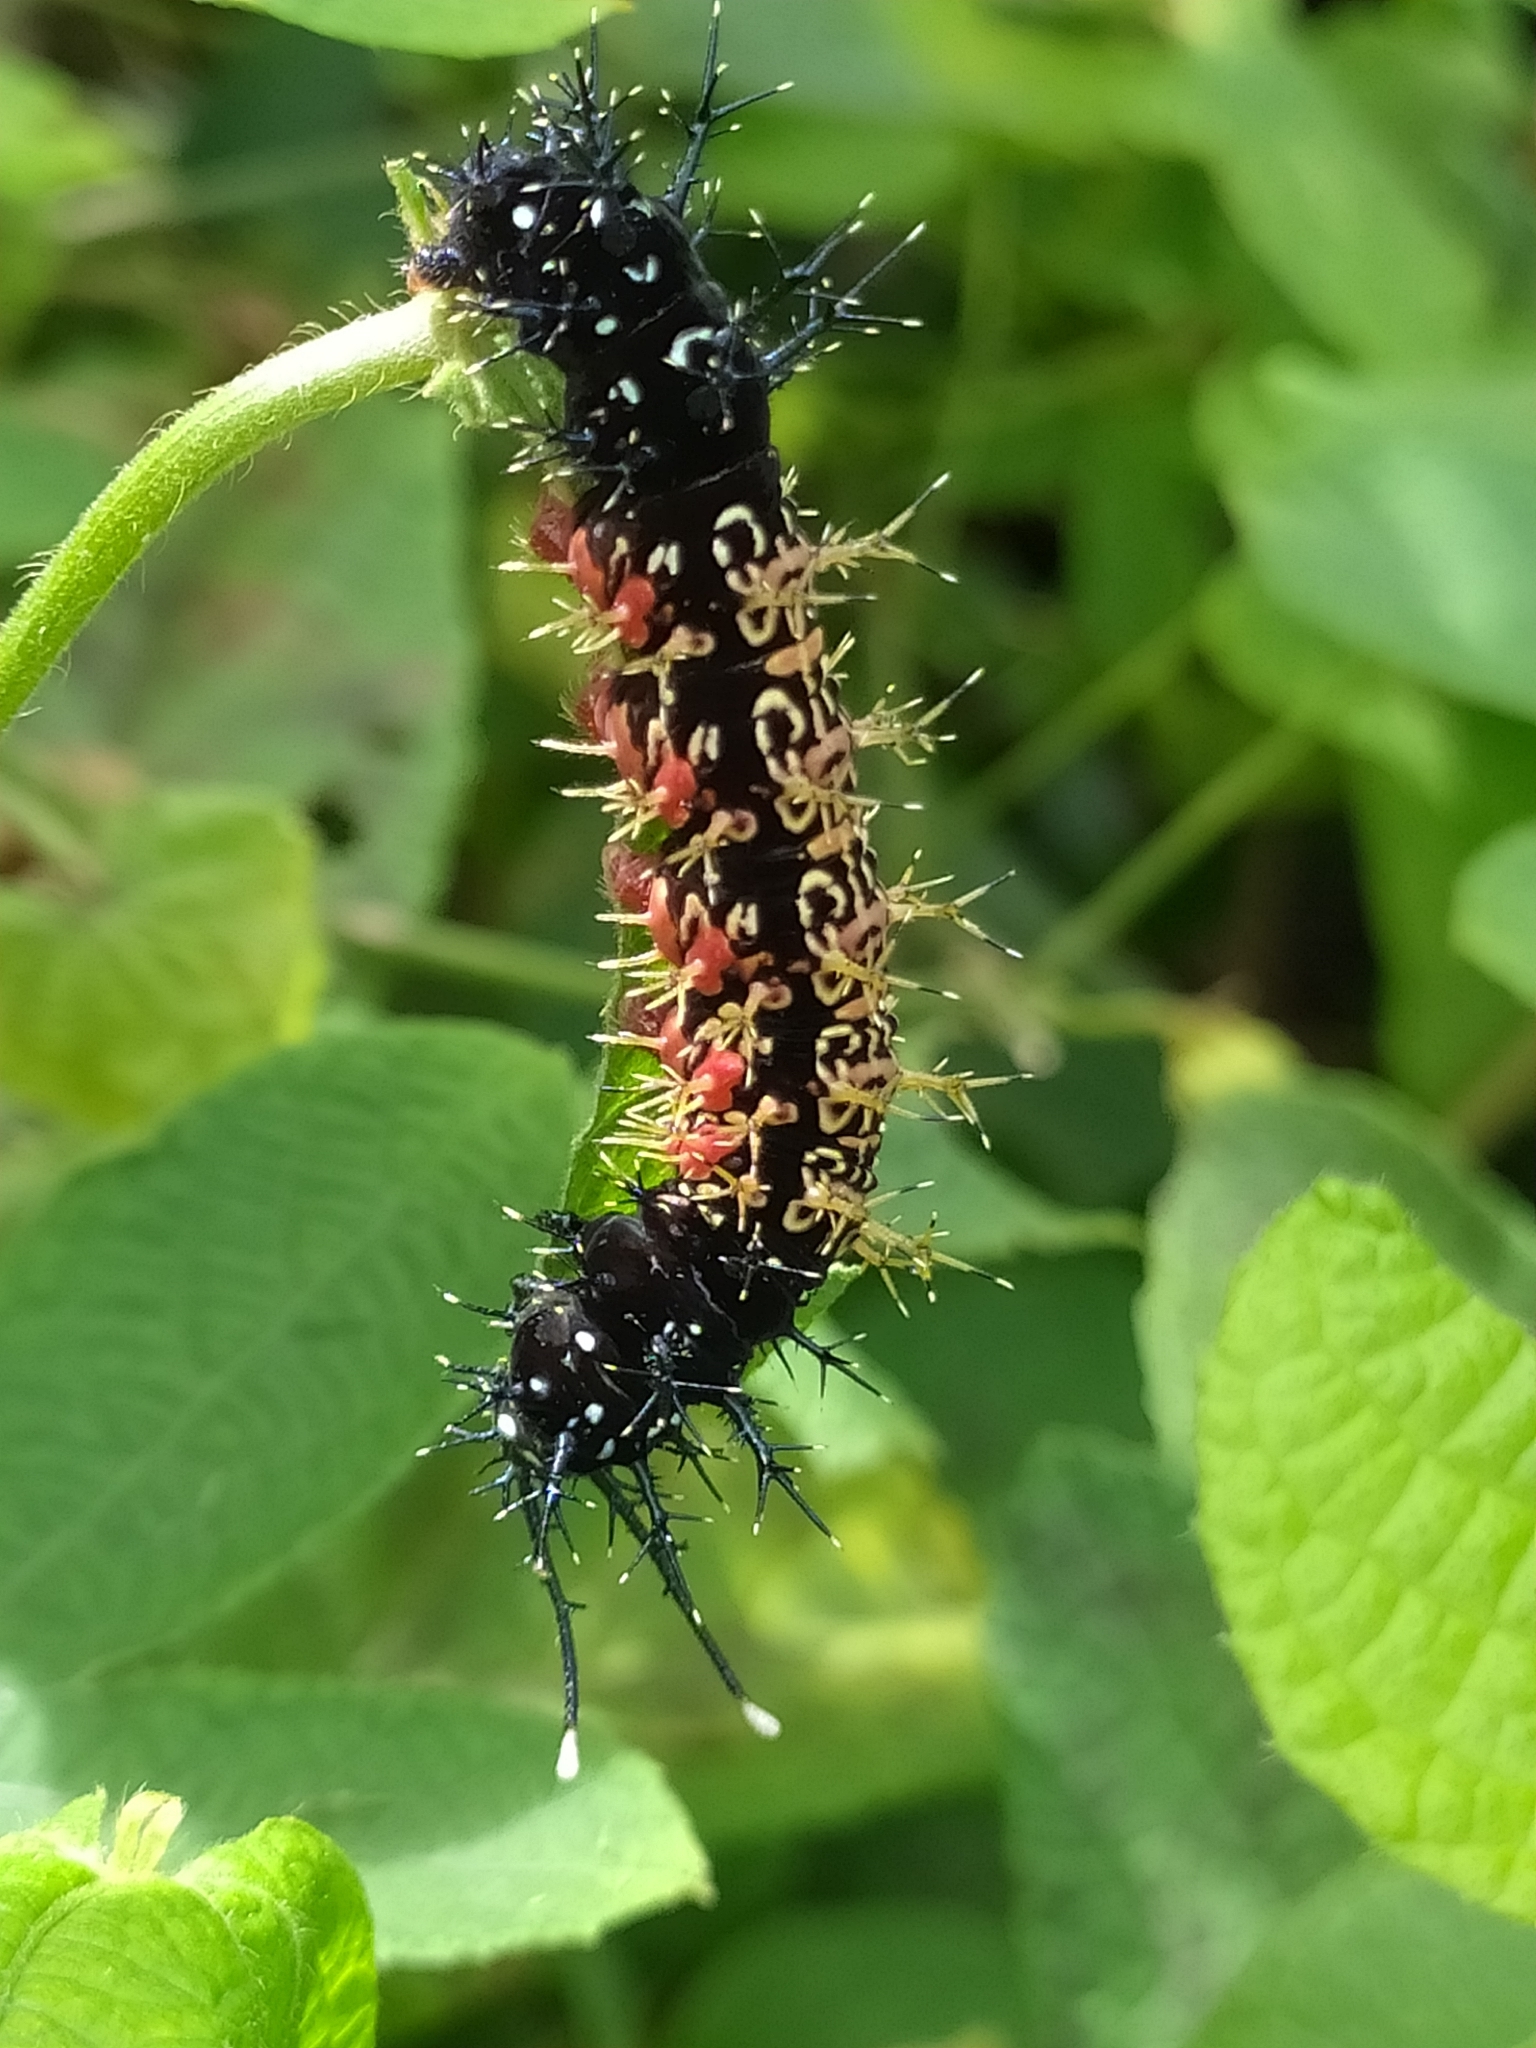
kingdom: Animalia
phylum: Arthropoda
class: Insecta
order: Lepidoptera
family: Nymphalidae
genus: Hamadryas
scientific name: Hamadryas amphinome
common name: Red cracker
